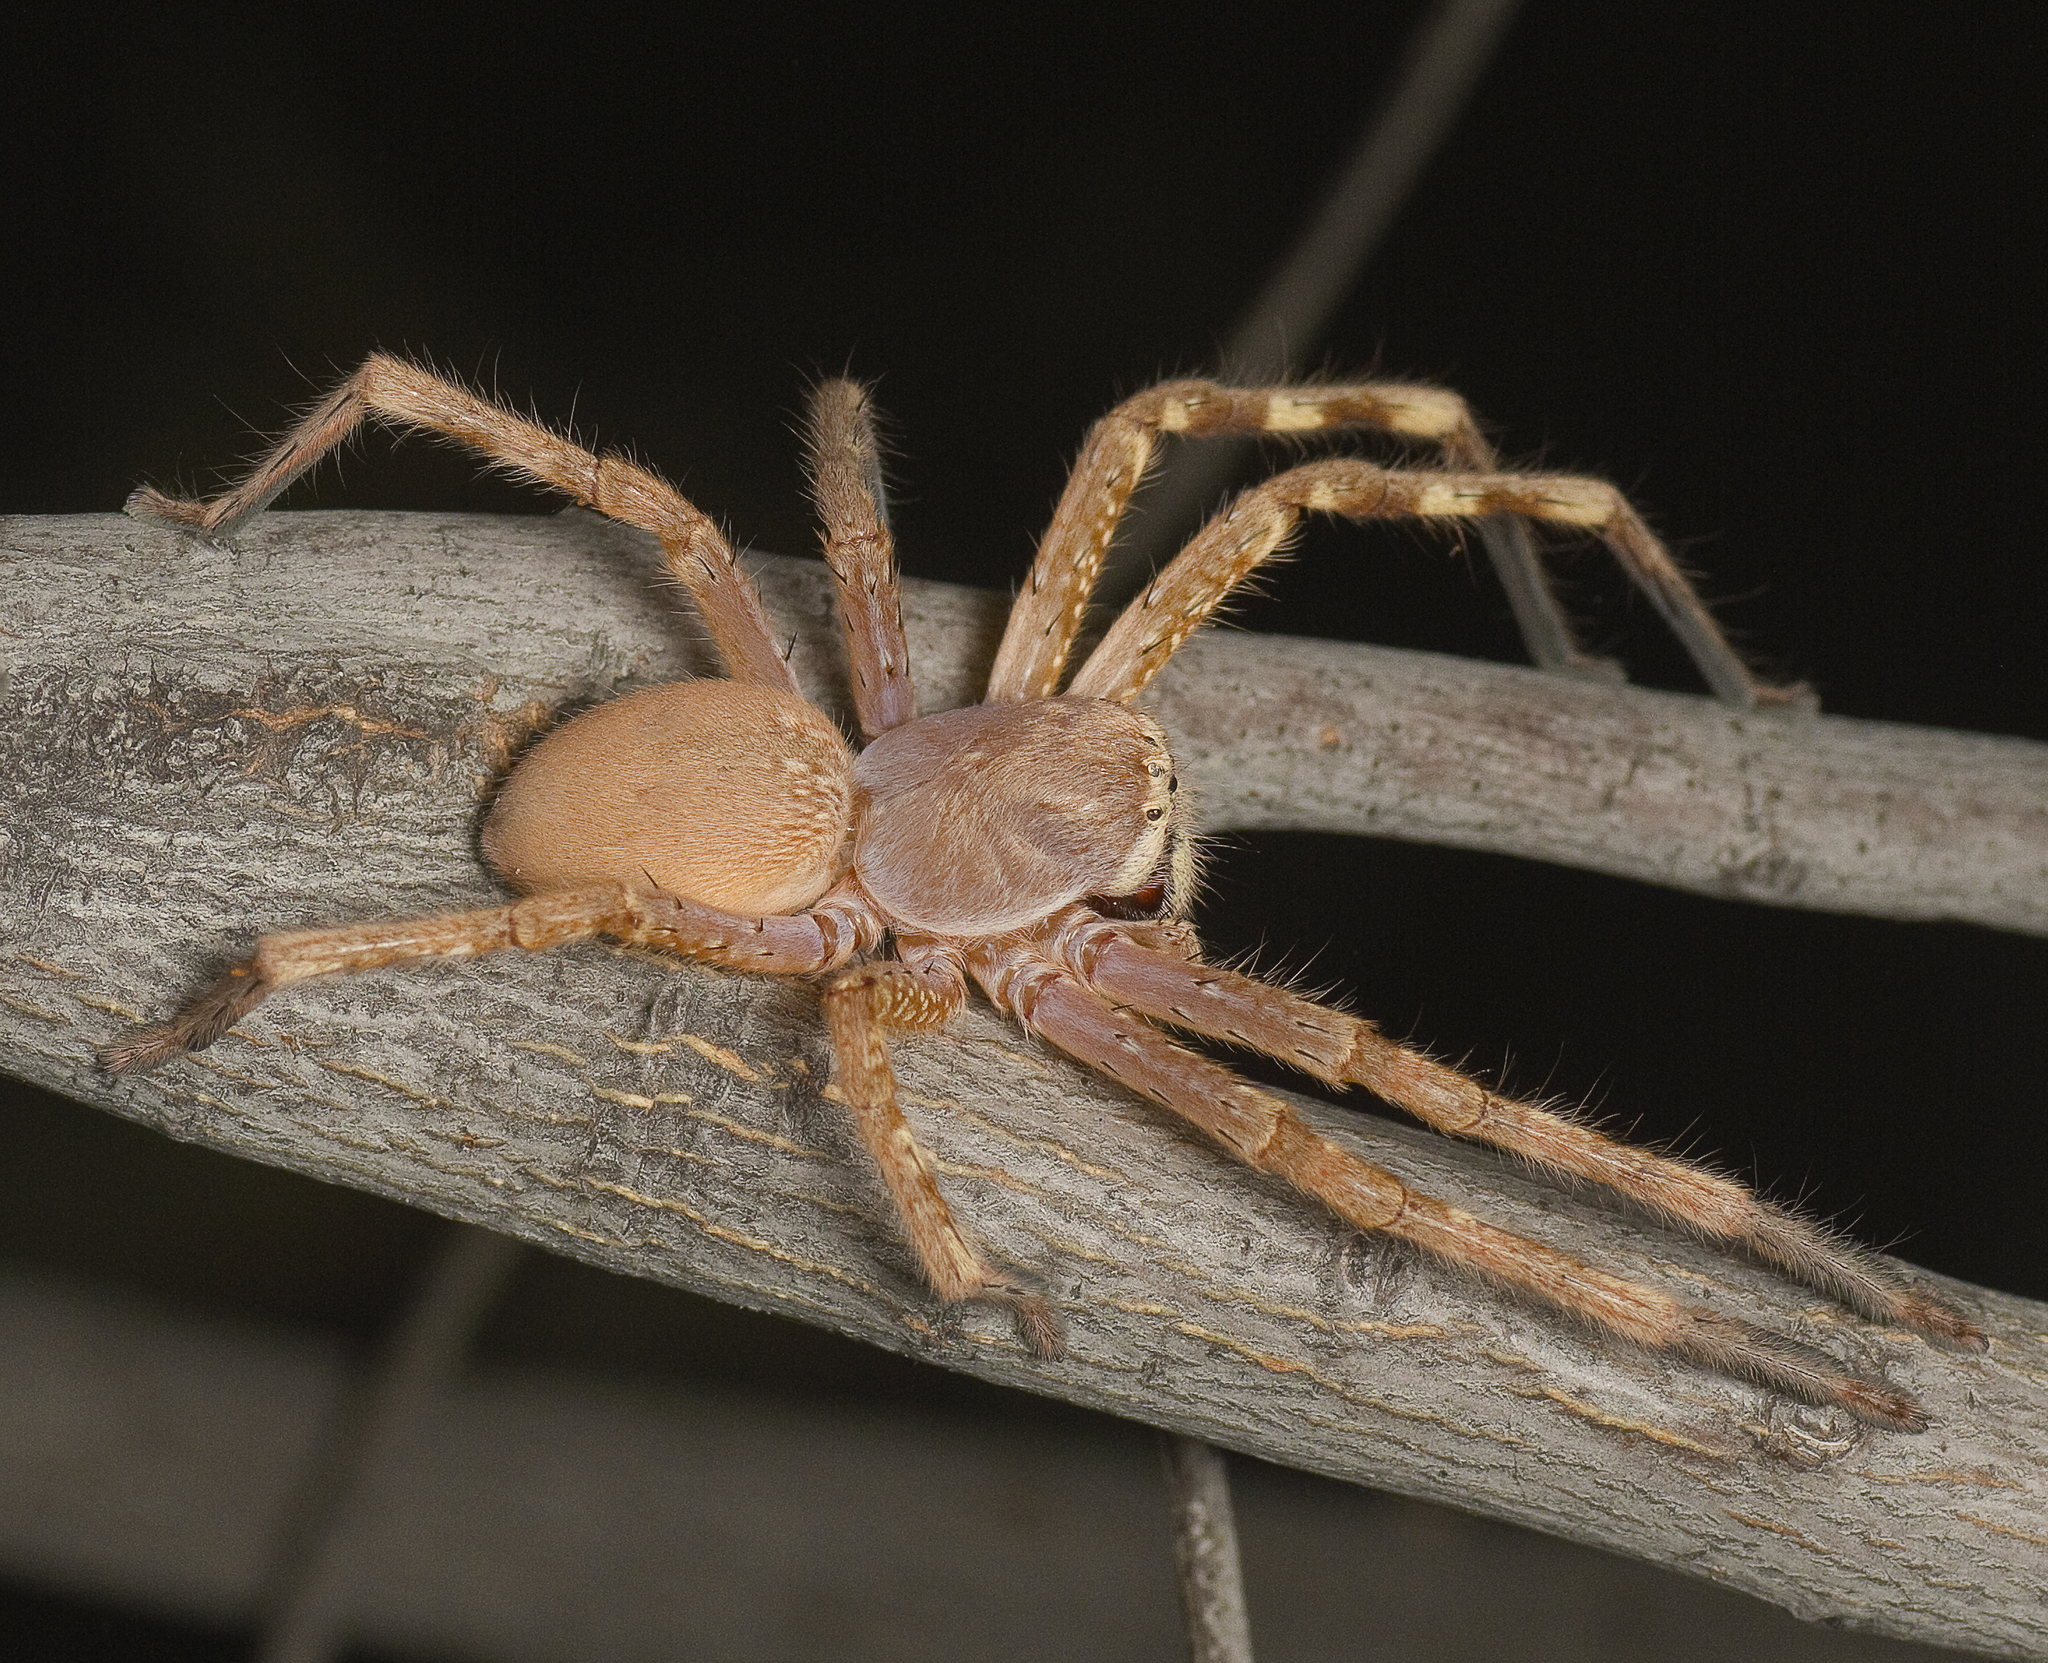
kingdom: Animalia
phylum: Arthropoda
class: Arachnida
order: Araneae
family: Sparassidae
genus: Neosparassus
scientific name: Neosparassus rutilus
